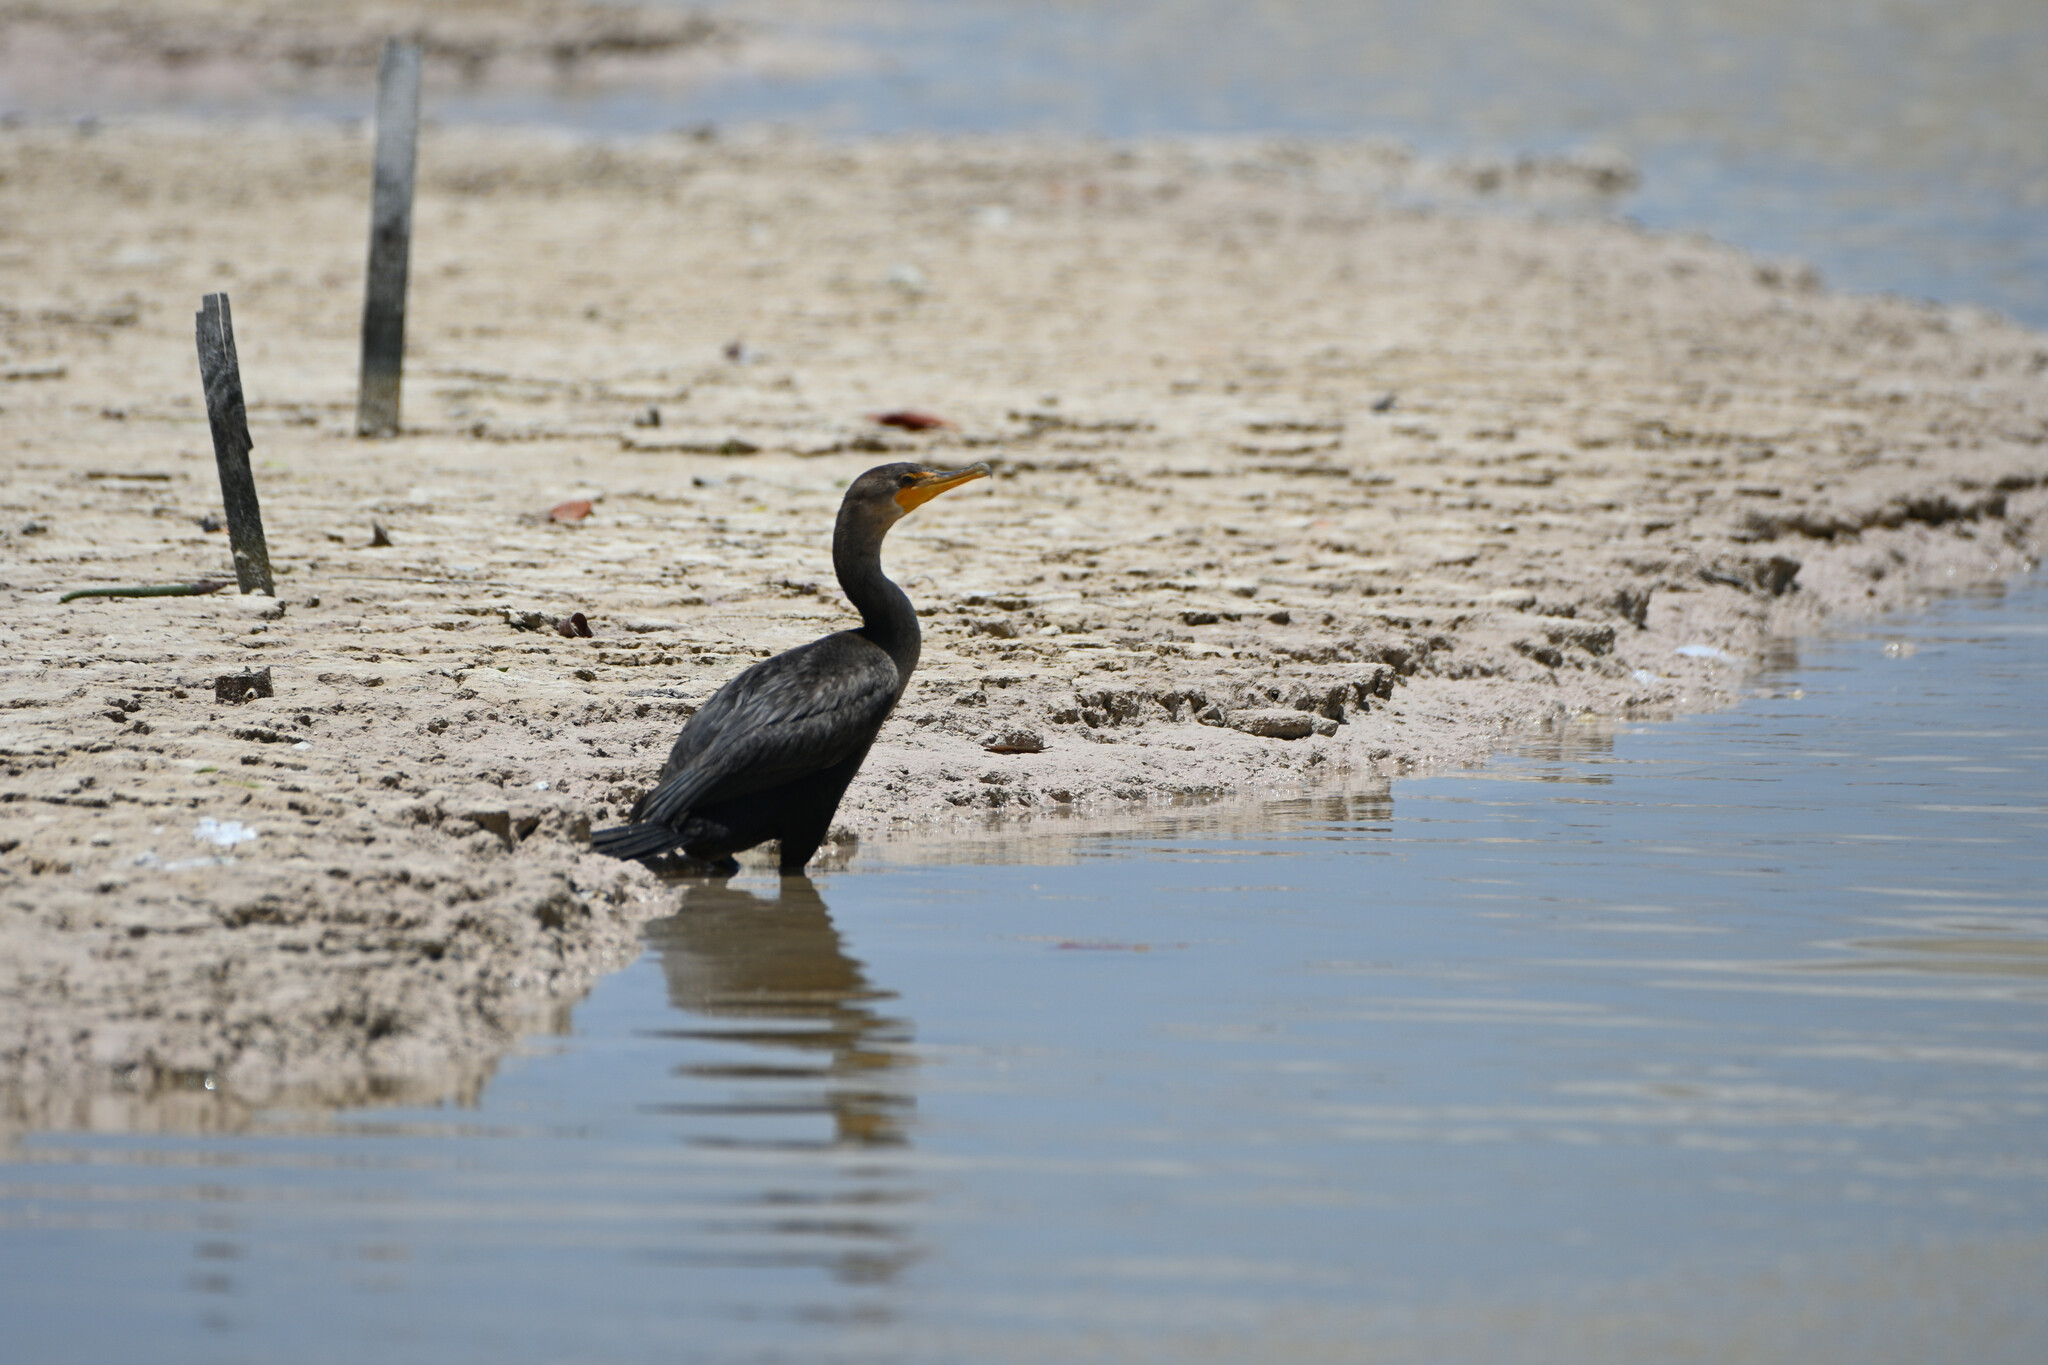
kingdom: Animalia
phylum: Chordata
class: Aves
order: Suliformes
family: Phalacrocoracidae
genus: Phalacrocorax
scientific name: Phalacrocorax auritus
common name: Double-crested cormorant
